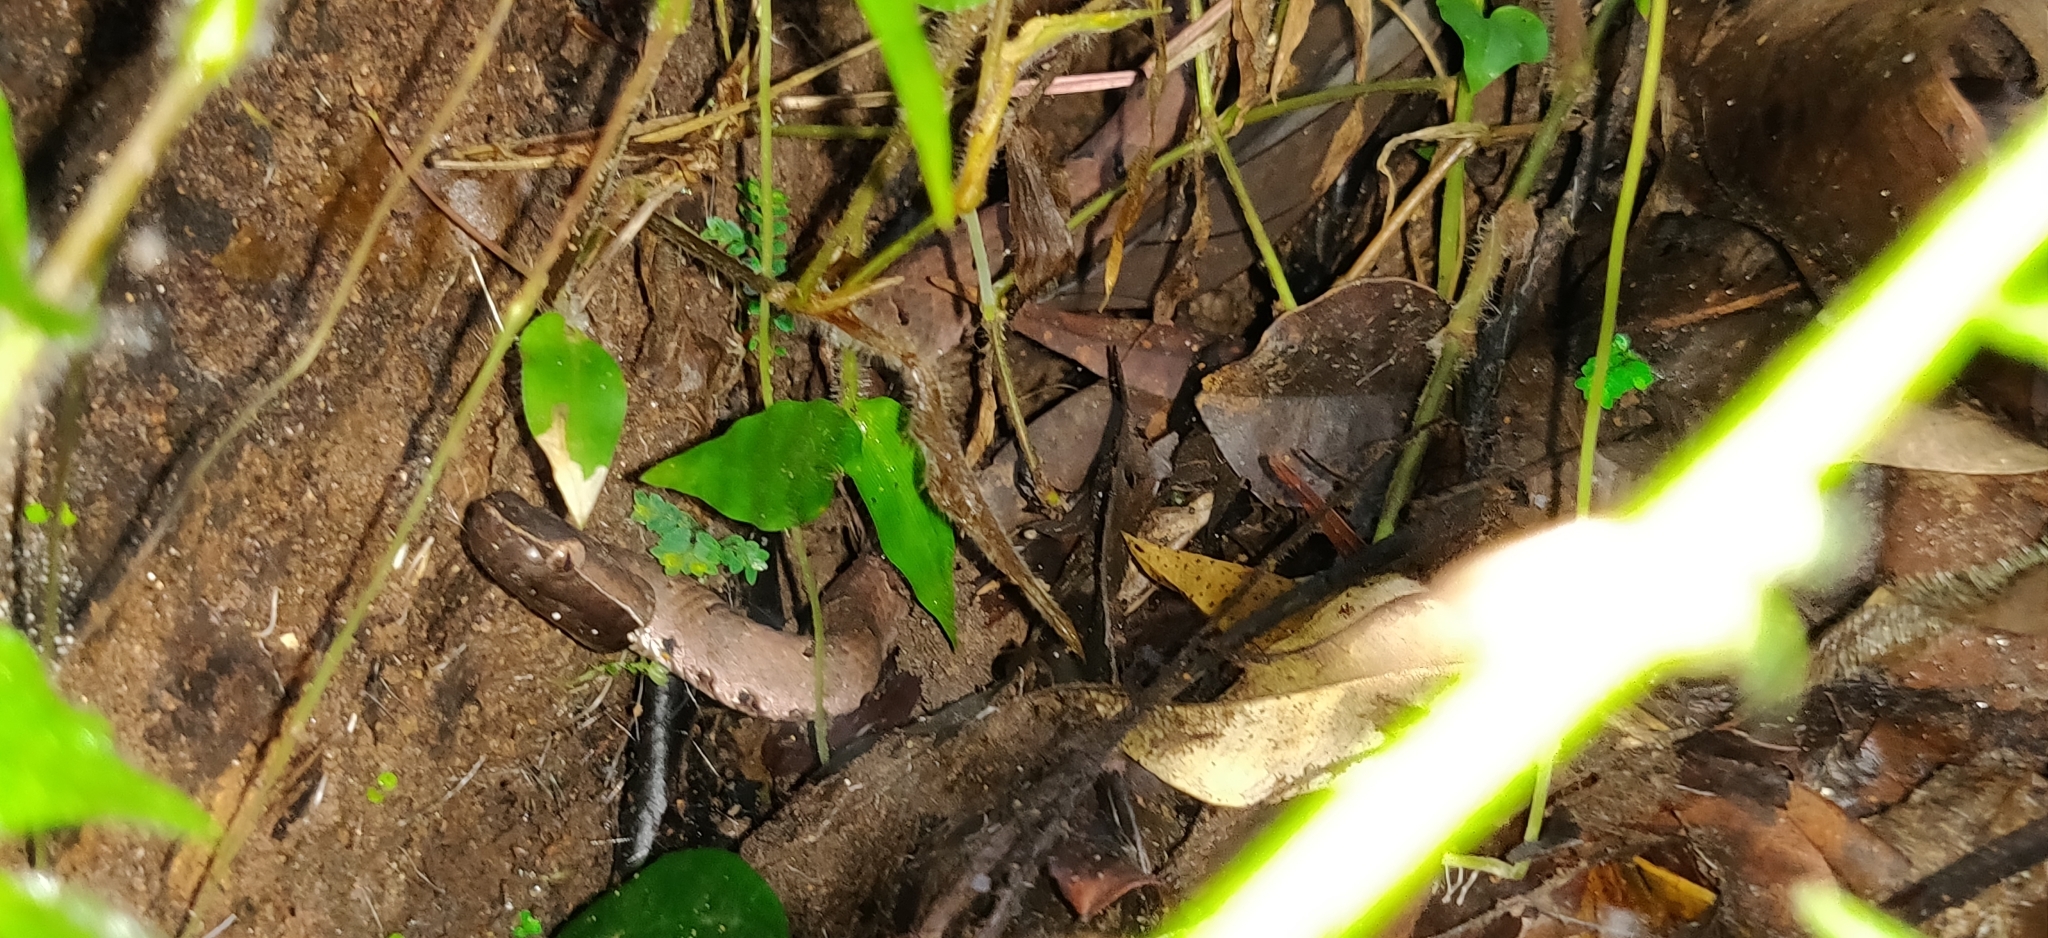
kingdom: Animalia
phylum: Chordata
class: Squamata
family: Viperidae
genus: Hypnale
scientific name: Hypnale hypnale
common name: Hump-nosed moccasin
